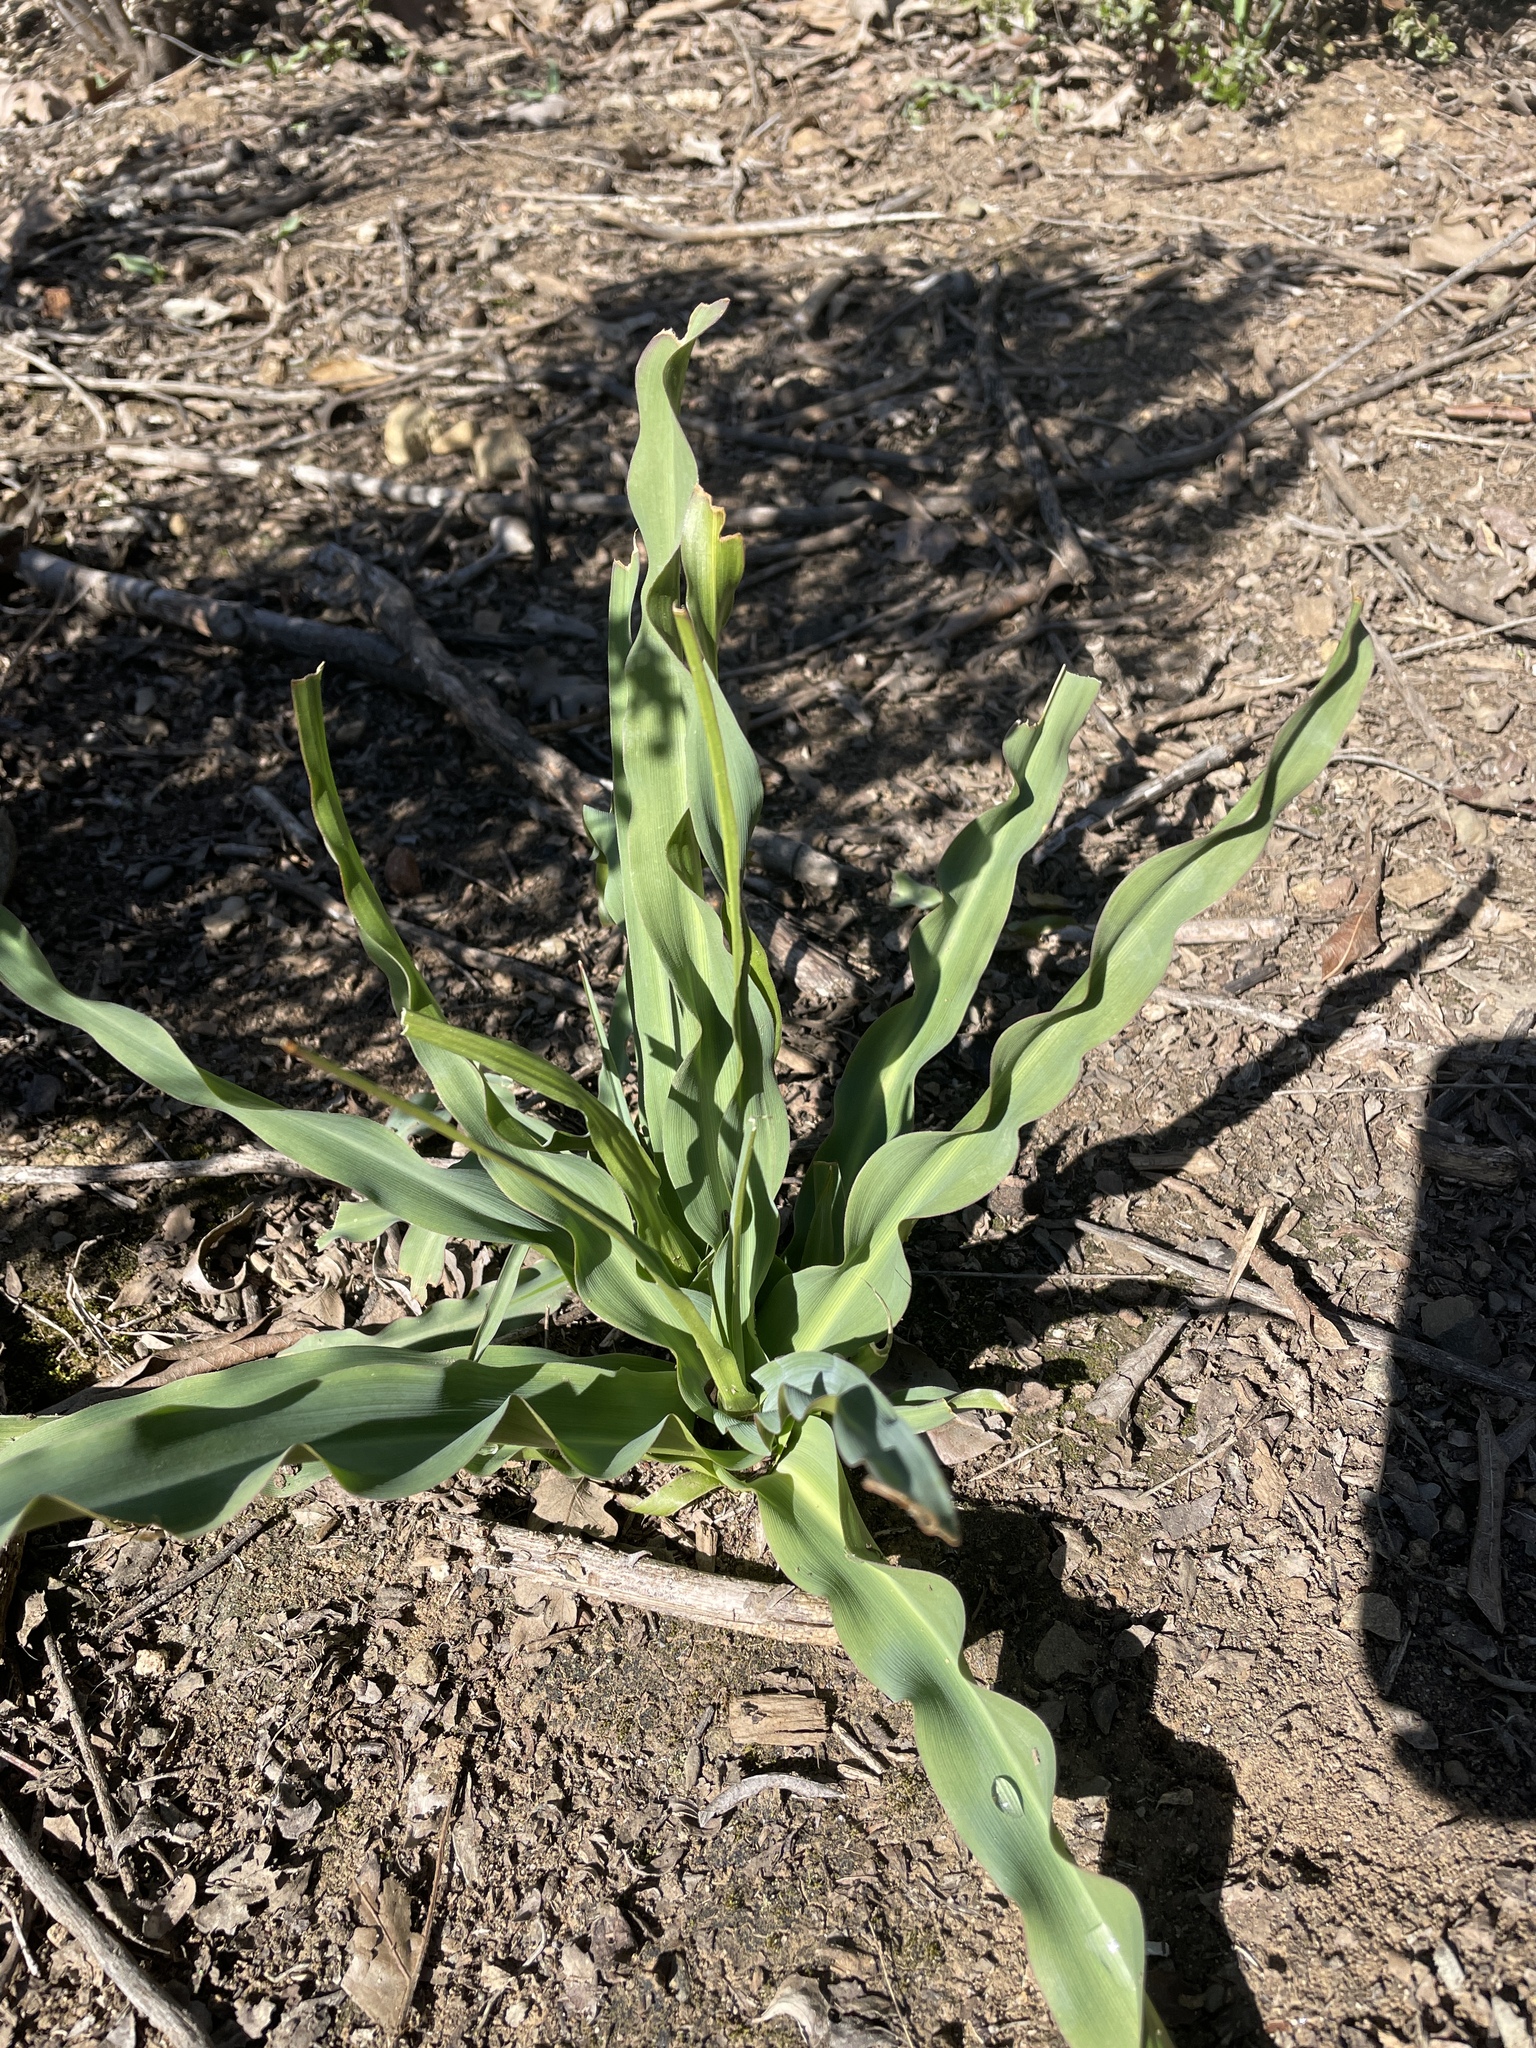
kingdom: Plantae
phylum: Tracheophyta
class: Liliopsida
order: Asparagales
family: Asparagaceae
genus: Chlorogalum
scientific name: Chlorogalum pomeridianum
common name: Amole
